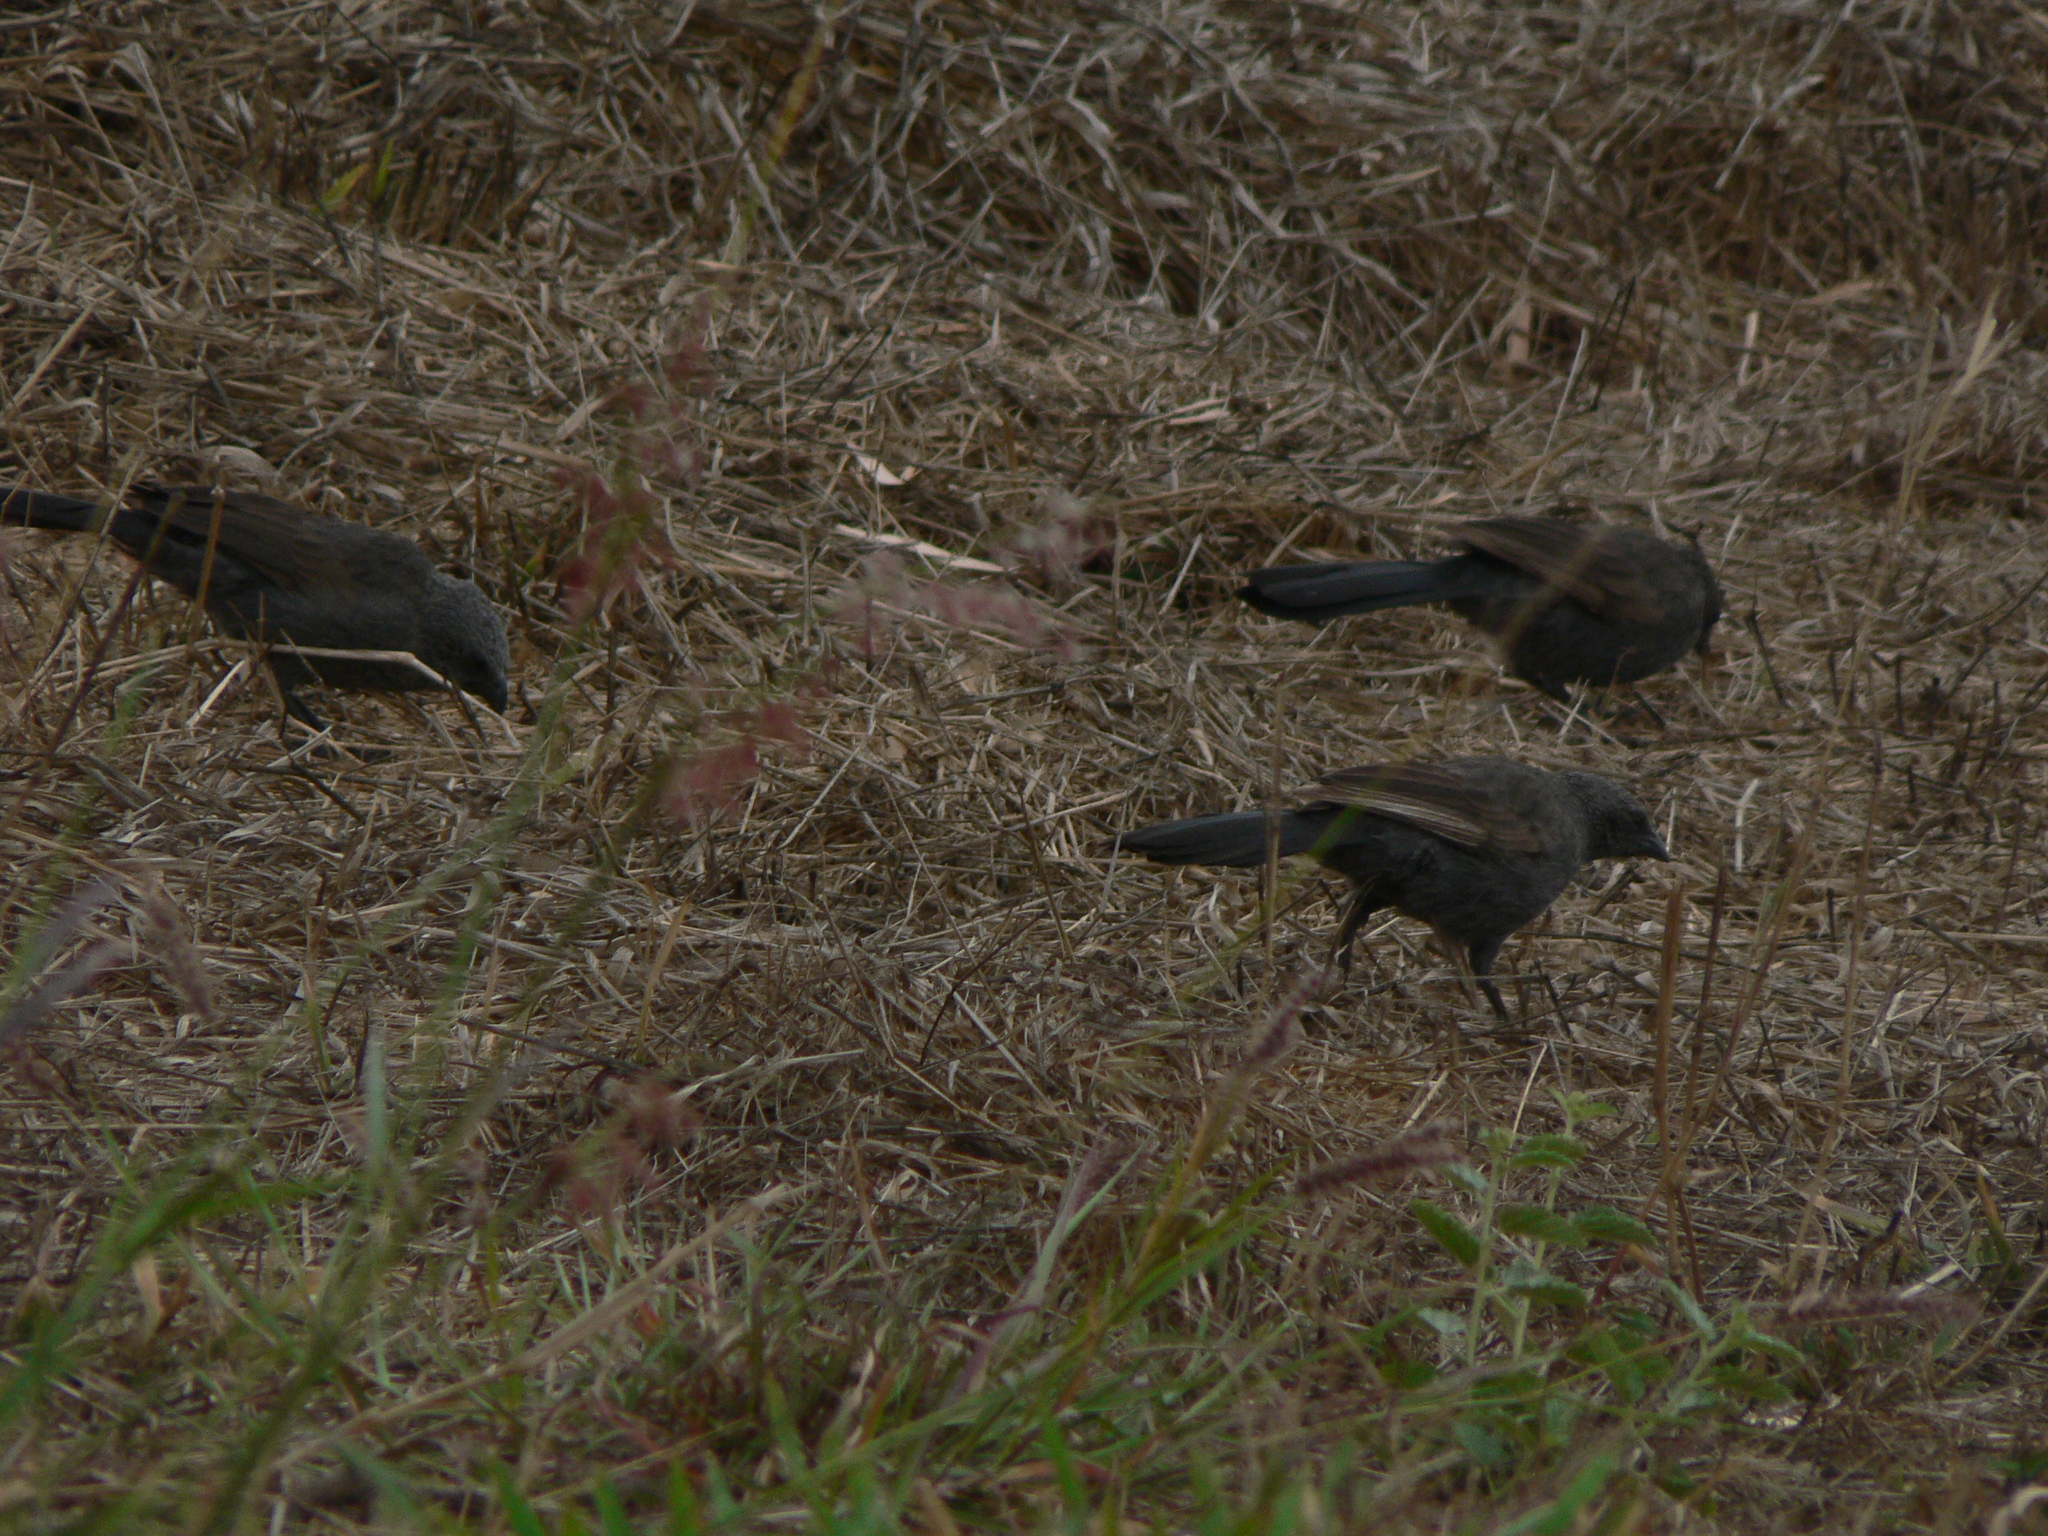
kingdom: Animalia
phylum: Chordata
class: Aves
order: Passeriformes
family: Corcoracidae
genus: Struthidea
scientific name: Struthidea cinerea
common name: Apostlebird
